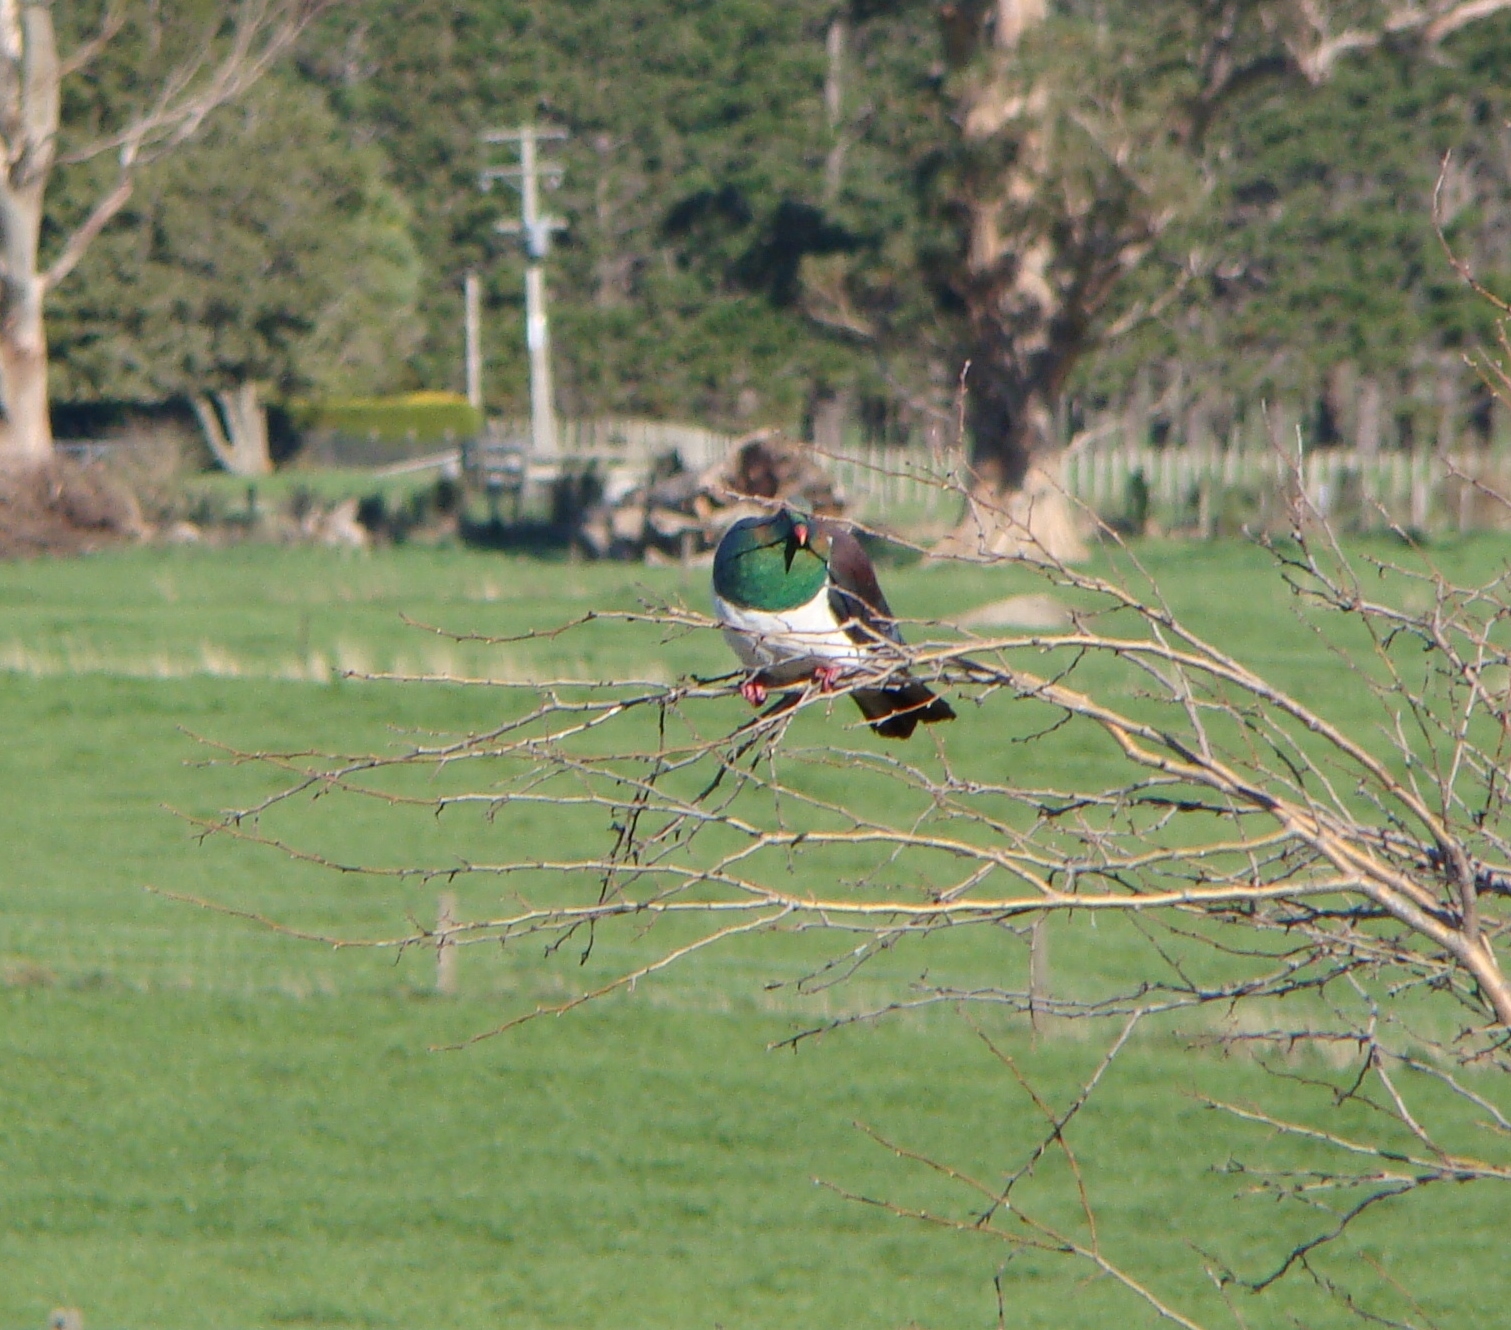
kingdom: Animalia
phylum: Chordata
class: Aves
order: Columbiformes
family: Columbidae
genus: Hemiphaga
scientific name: Hemiphaga novaeseelandiae
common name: New zealand pigeon
